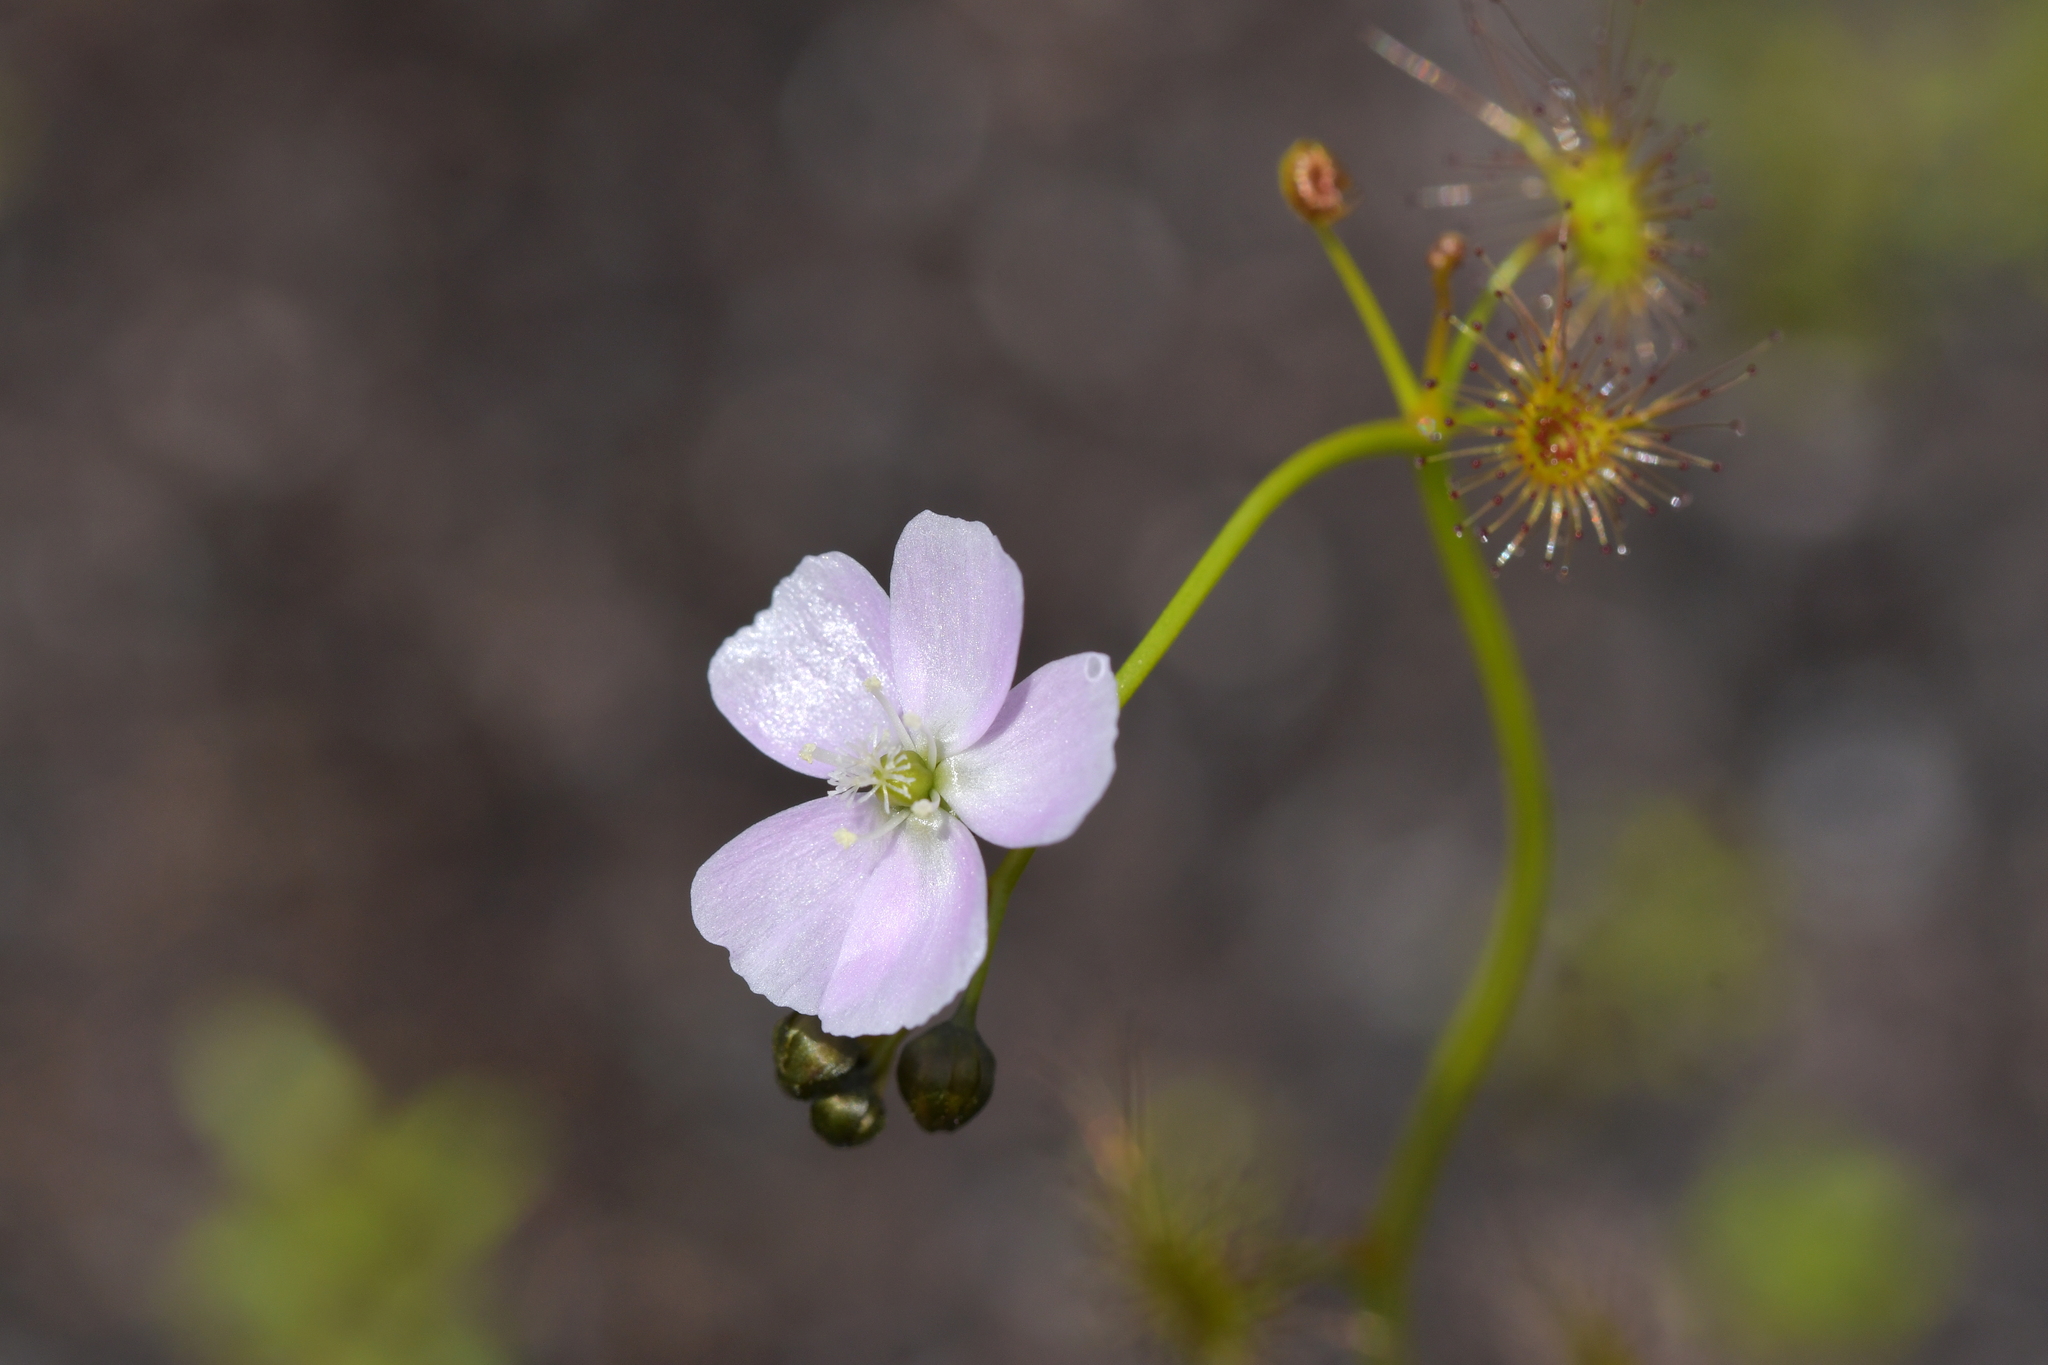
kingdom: Plantae
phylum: Tracheophyta
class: Magnoliopsida
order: Caryophyllales
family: Droseraceae
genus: Drosera
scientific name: Drosera peltata
